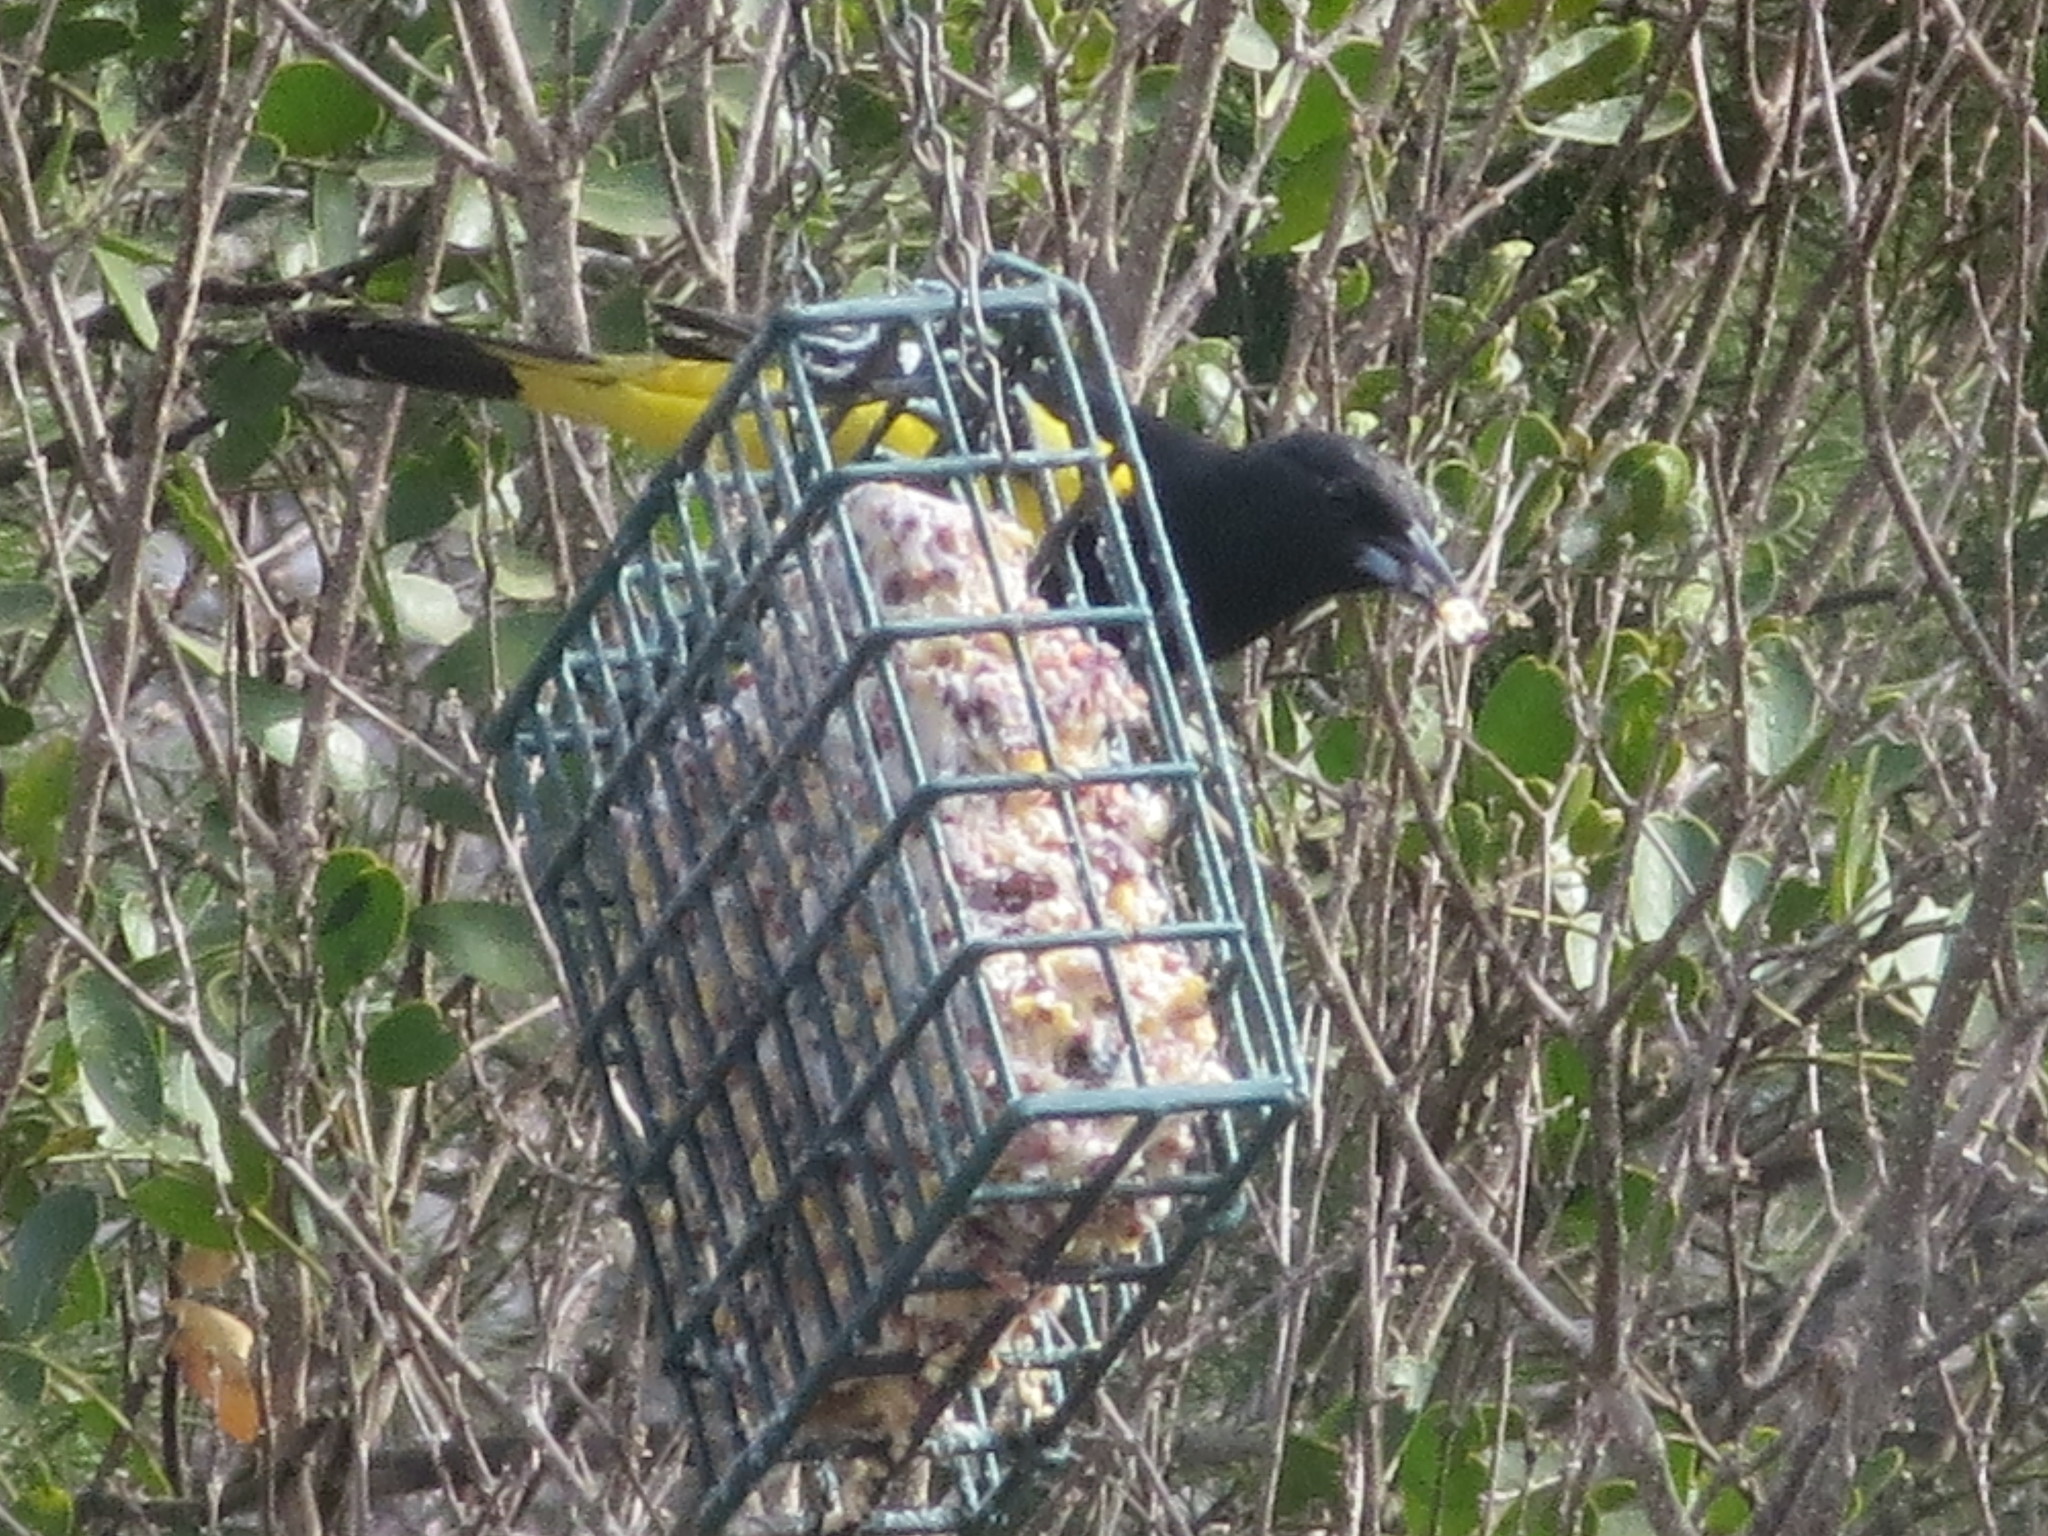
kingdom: Animalia
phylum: Chordata
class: Aves
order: Passeriformes
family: Icteridae
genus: Icterus
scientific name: Icterus parisorum
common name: Scott's oriole
